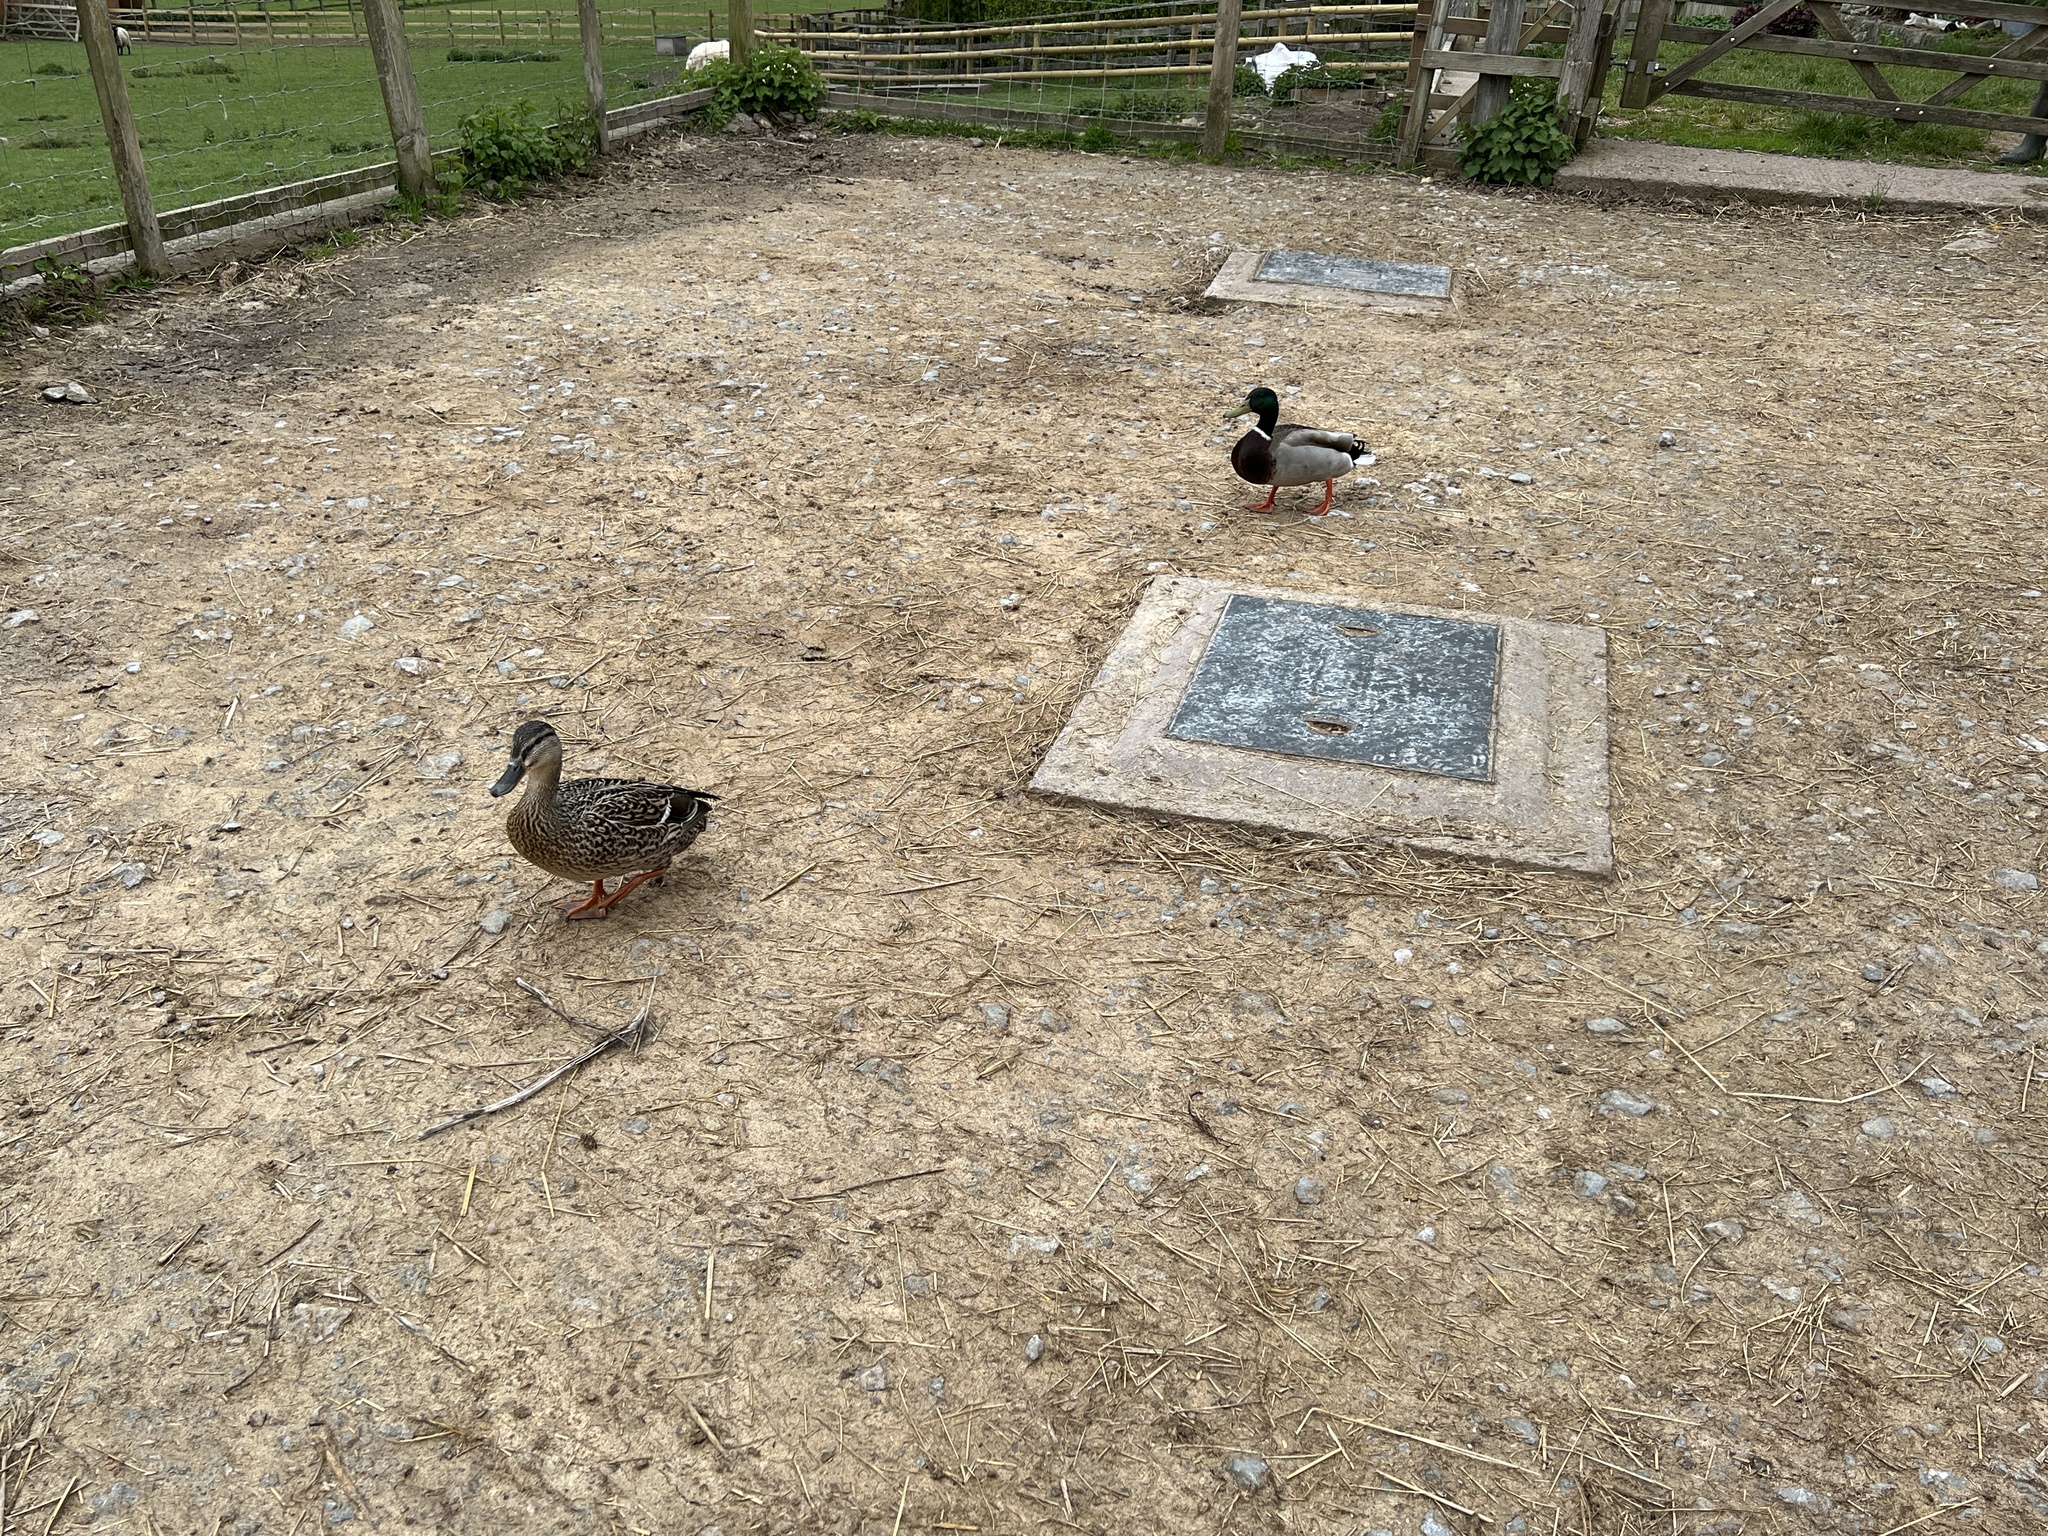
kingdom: Animalia
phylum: Chordata
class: Aves
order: Anseriformes
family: Anatidae
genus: Anas
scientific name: Anas platyrhynchos
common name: Mallard
